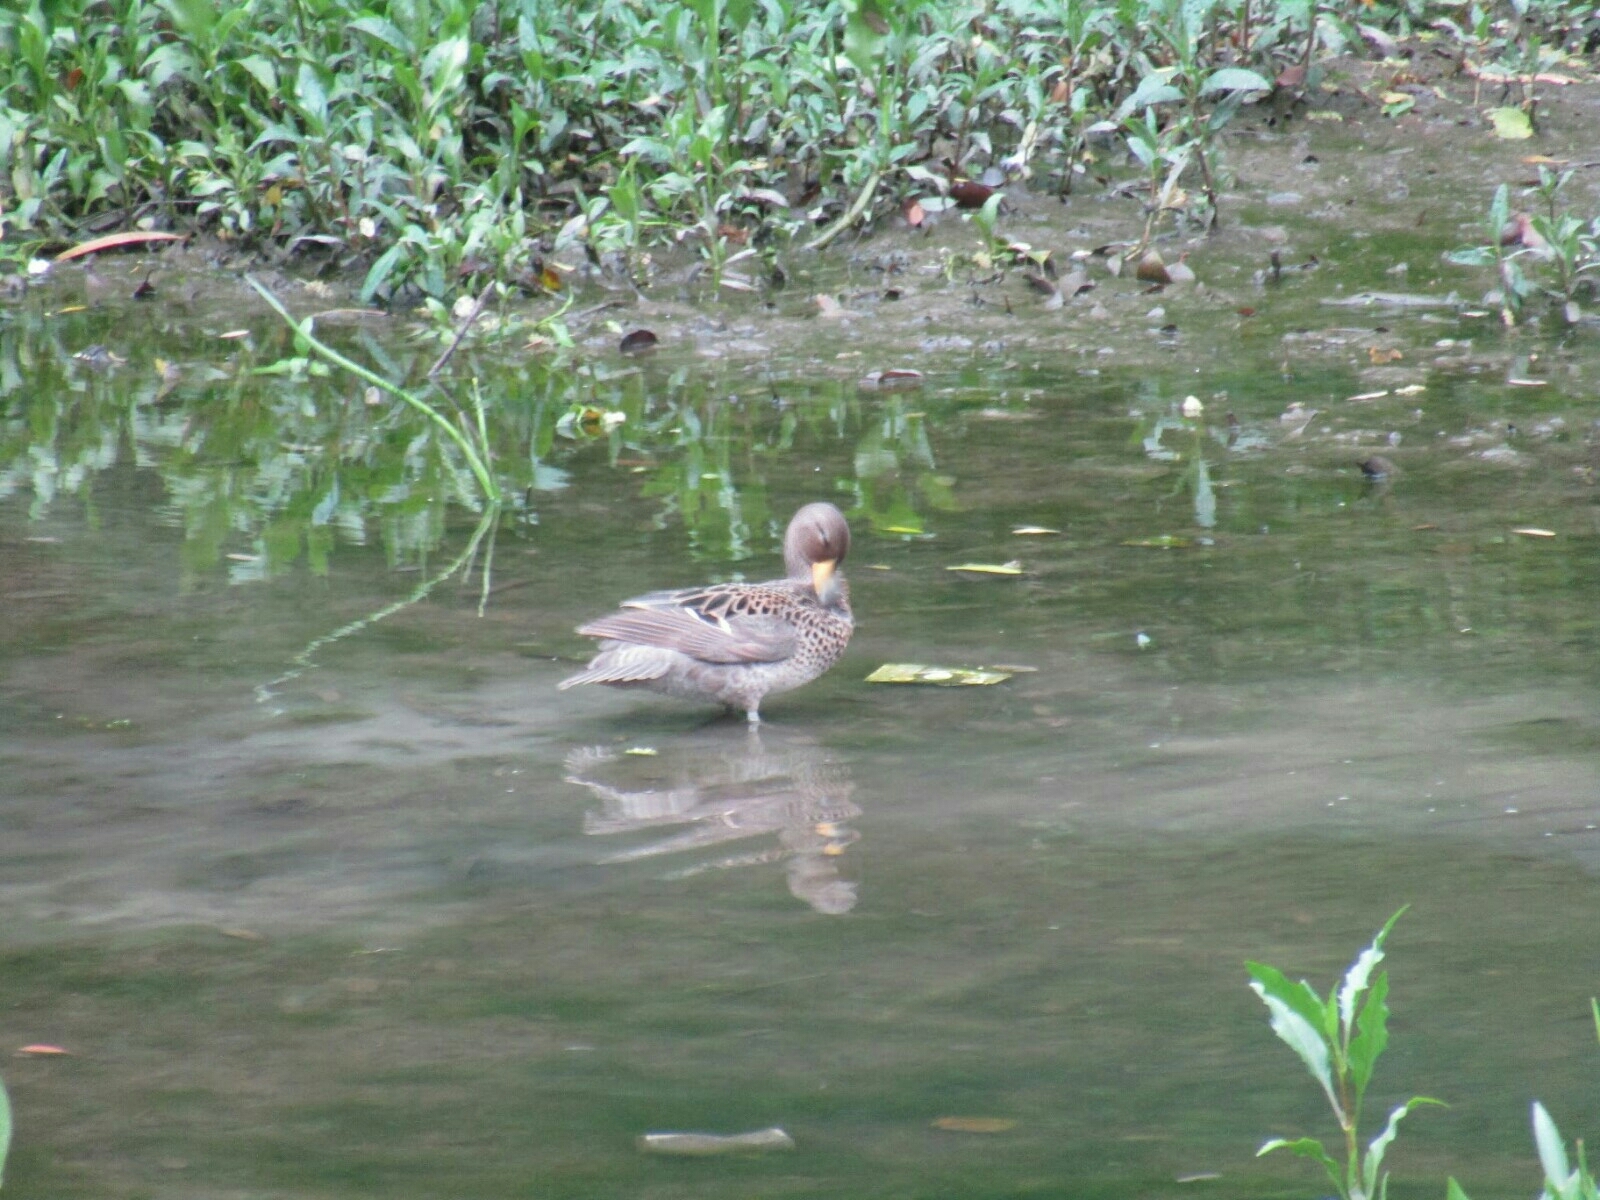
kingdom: Animalia
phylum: Chordata
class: Aves
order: Anseriformes
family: Anatidae
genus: Anas
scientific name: Anas flavirostris
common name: Yellow-billed teal
